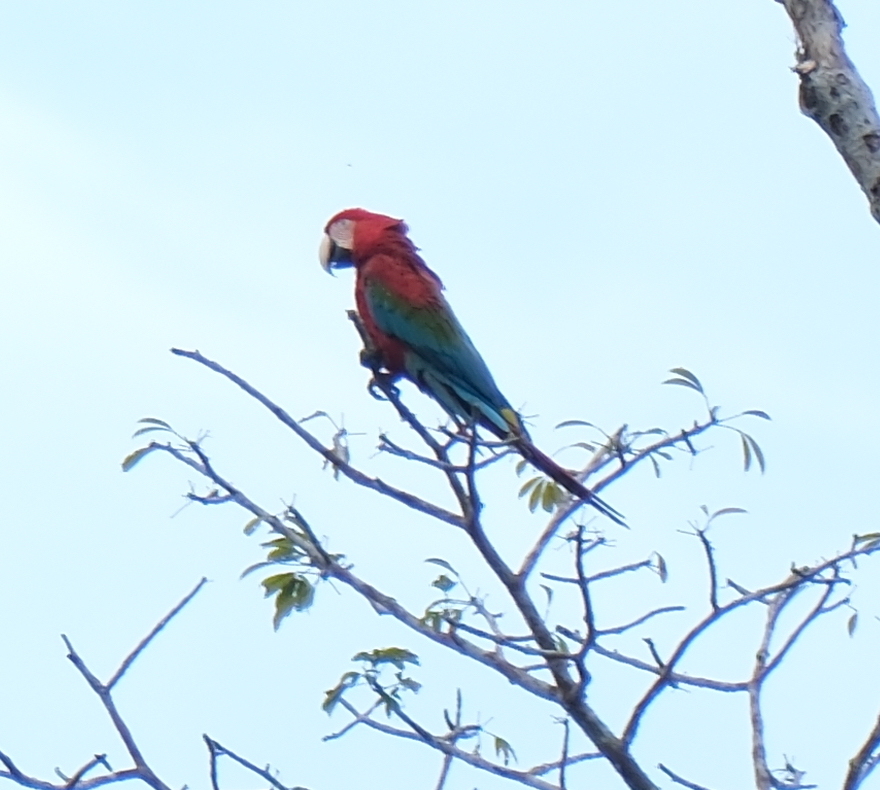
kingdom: Animalia
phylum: Chordata
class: Aves
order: Psittaciformes
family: Psittacidae
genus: Ara
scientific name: Ara chloropterus
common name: Red-and-green macaw
